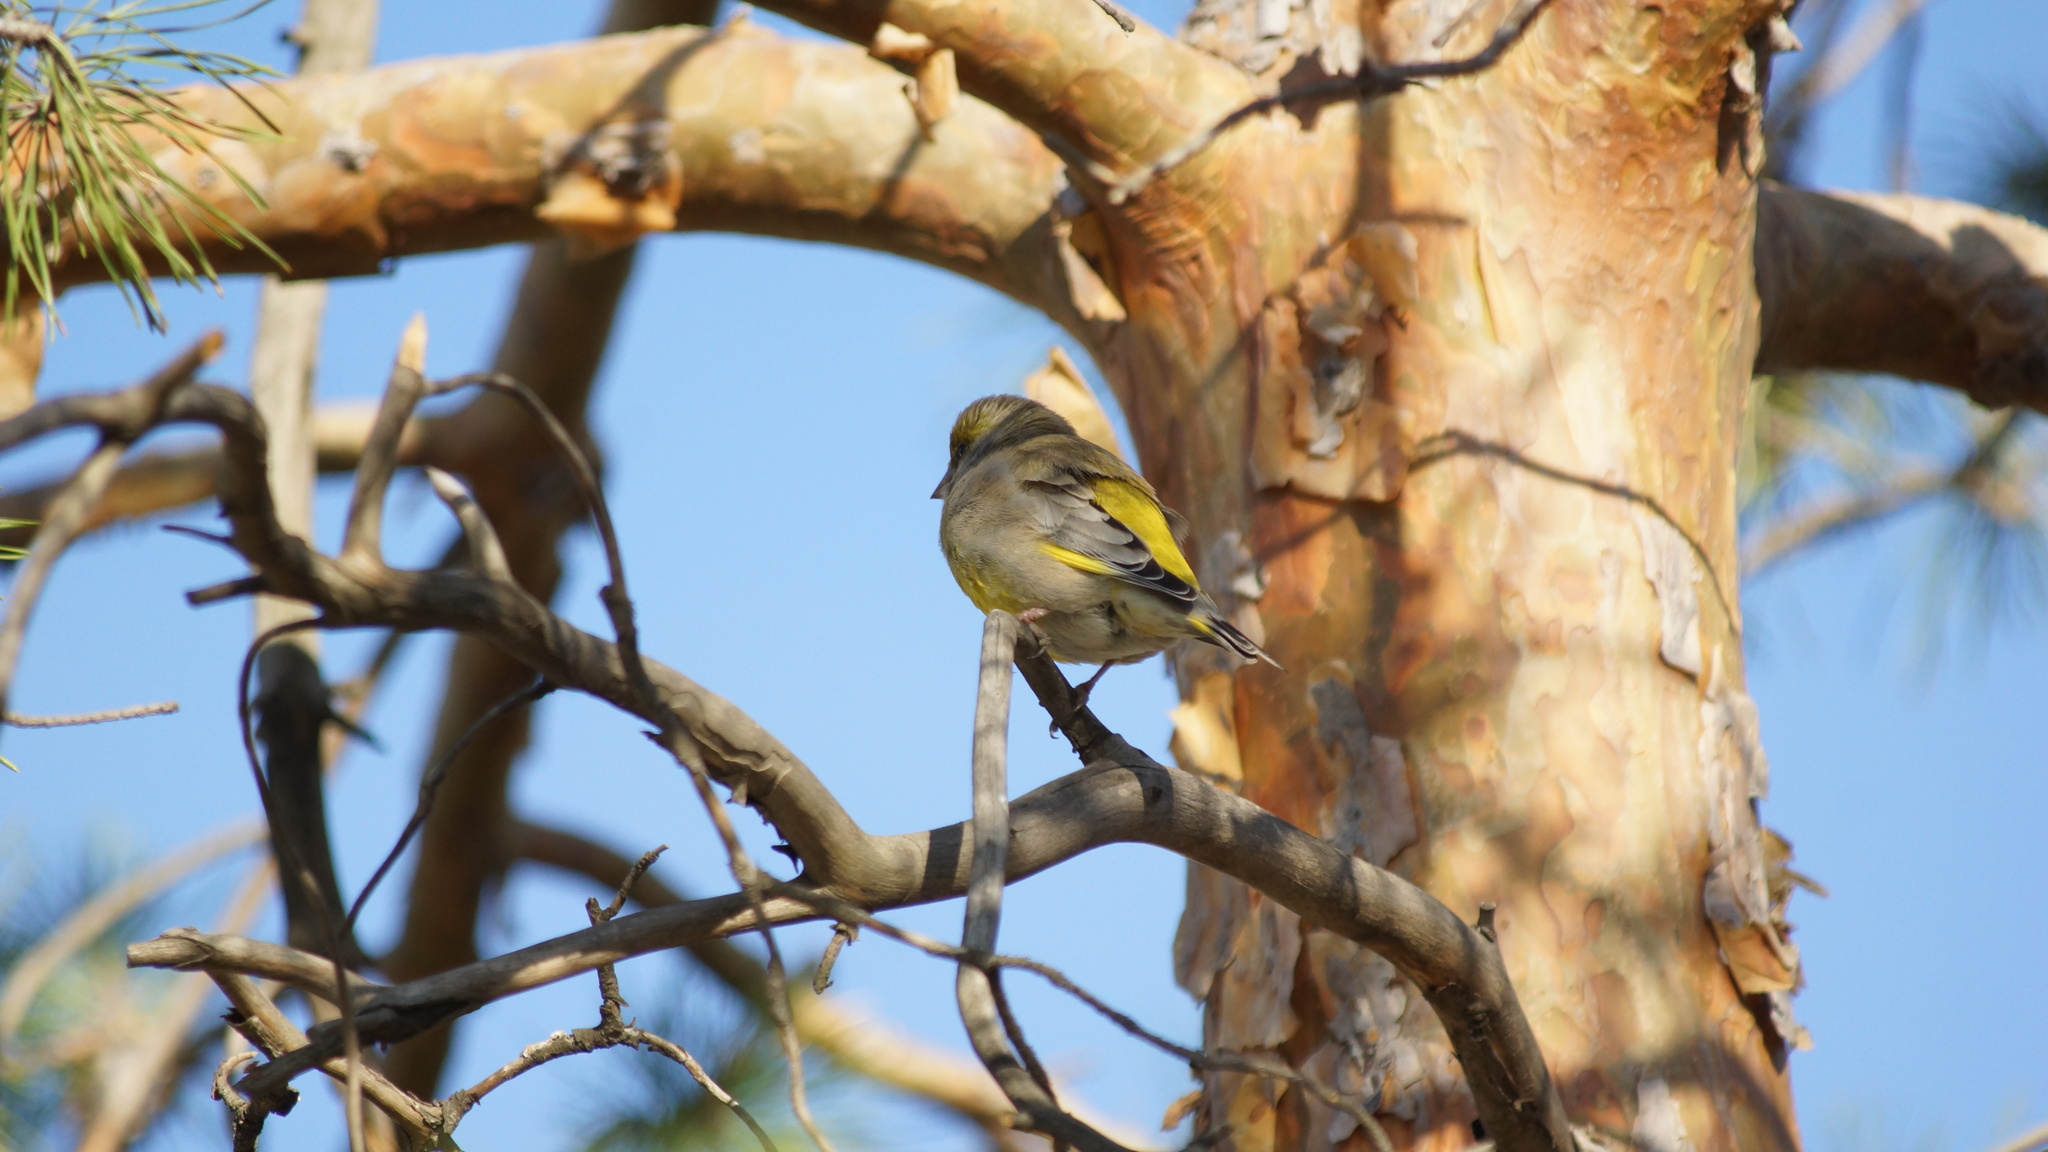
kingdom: Plantae
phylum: Tracheophyta
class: Liliopsida
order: Poales
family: Poaceae
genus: Chloris
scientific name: Chloris chloris
